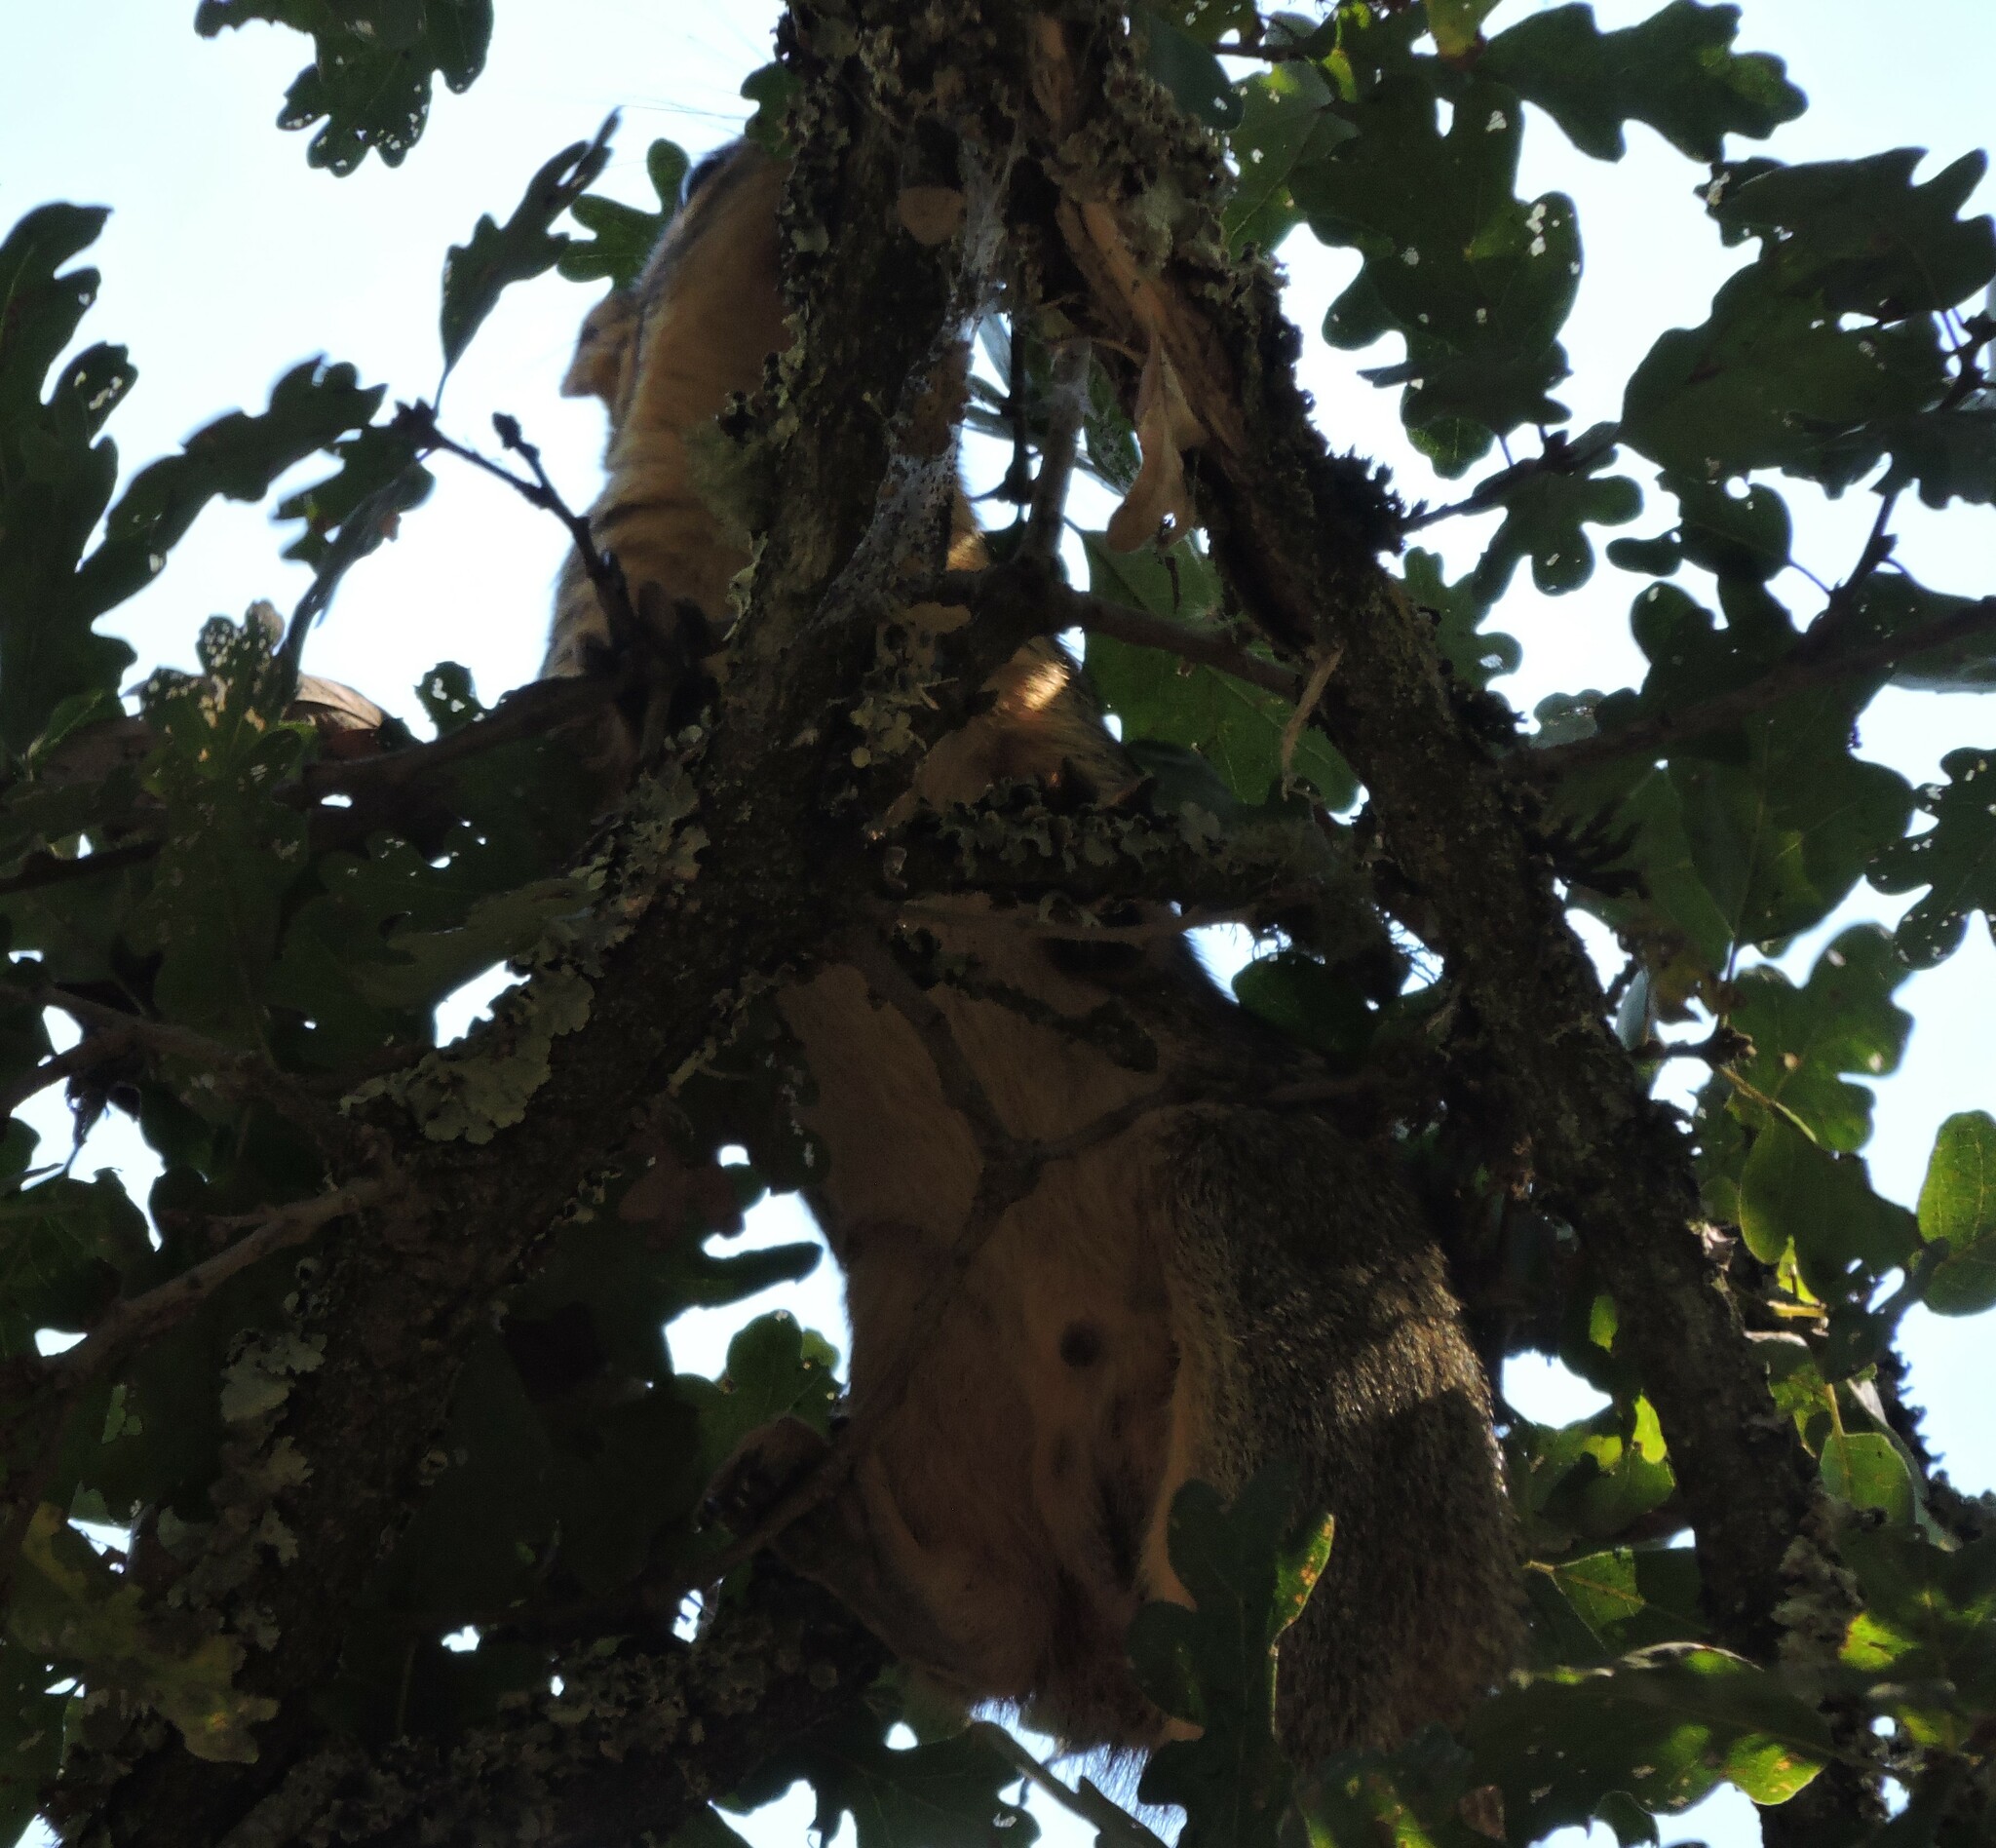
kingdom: Animalia
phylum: Chordata
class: Mammalia
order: Rodentia
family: Sciuridae
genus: Sciurus
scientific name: Sciurus niger
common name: Fox squirrel
